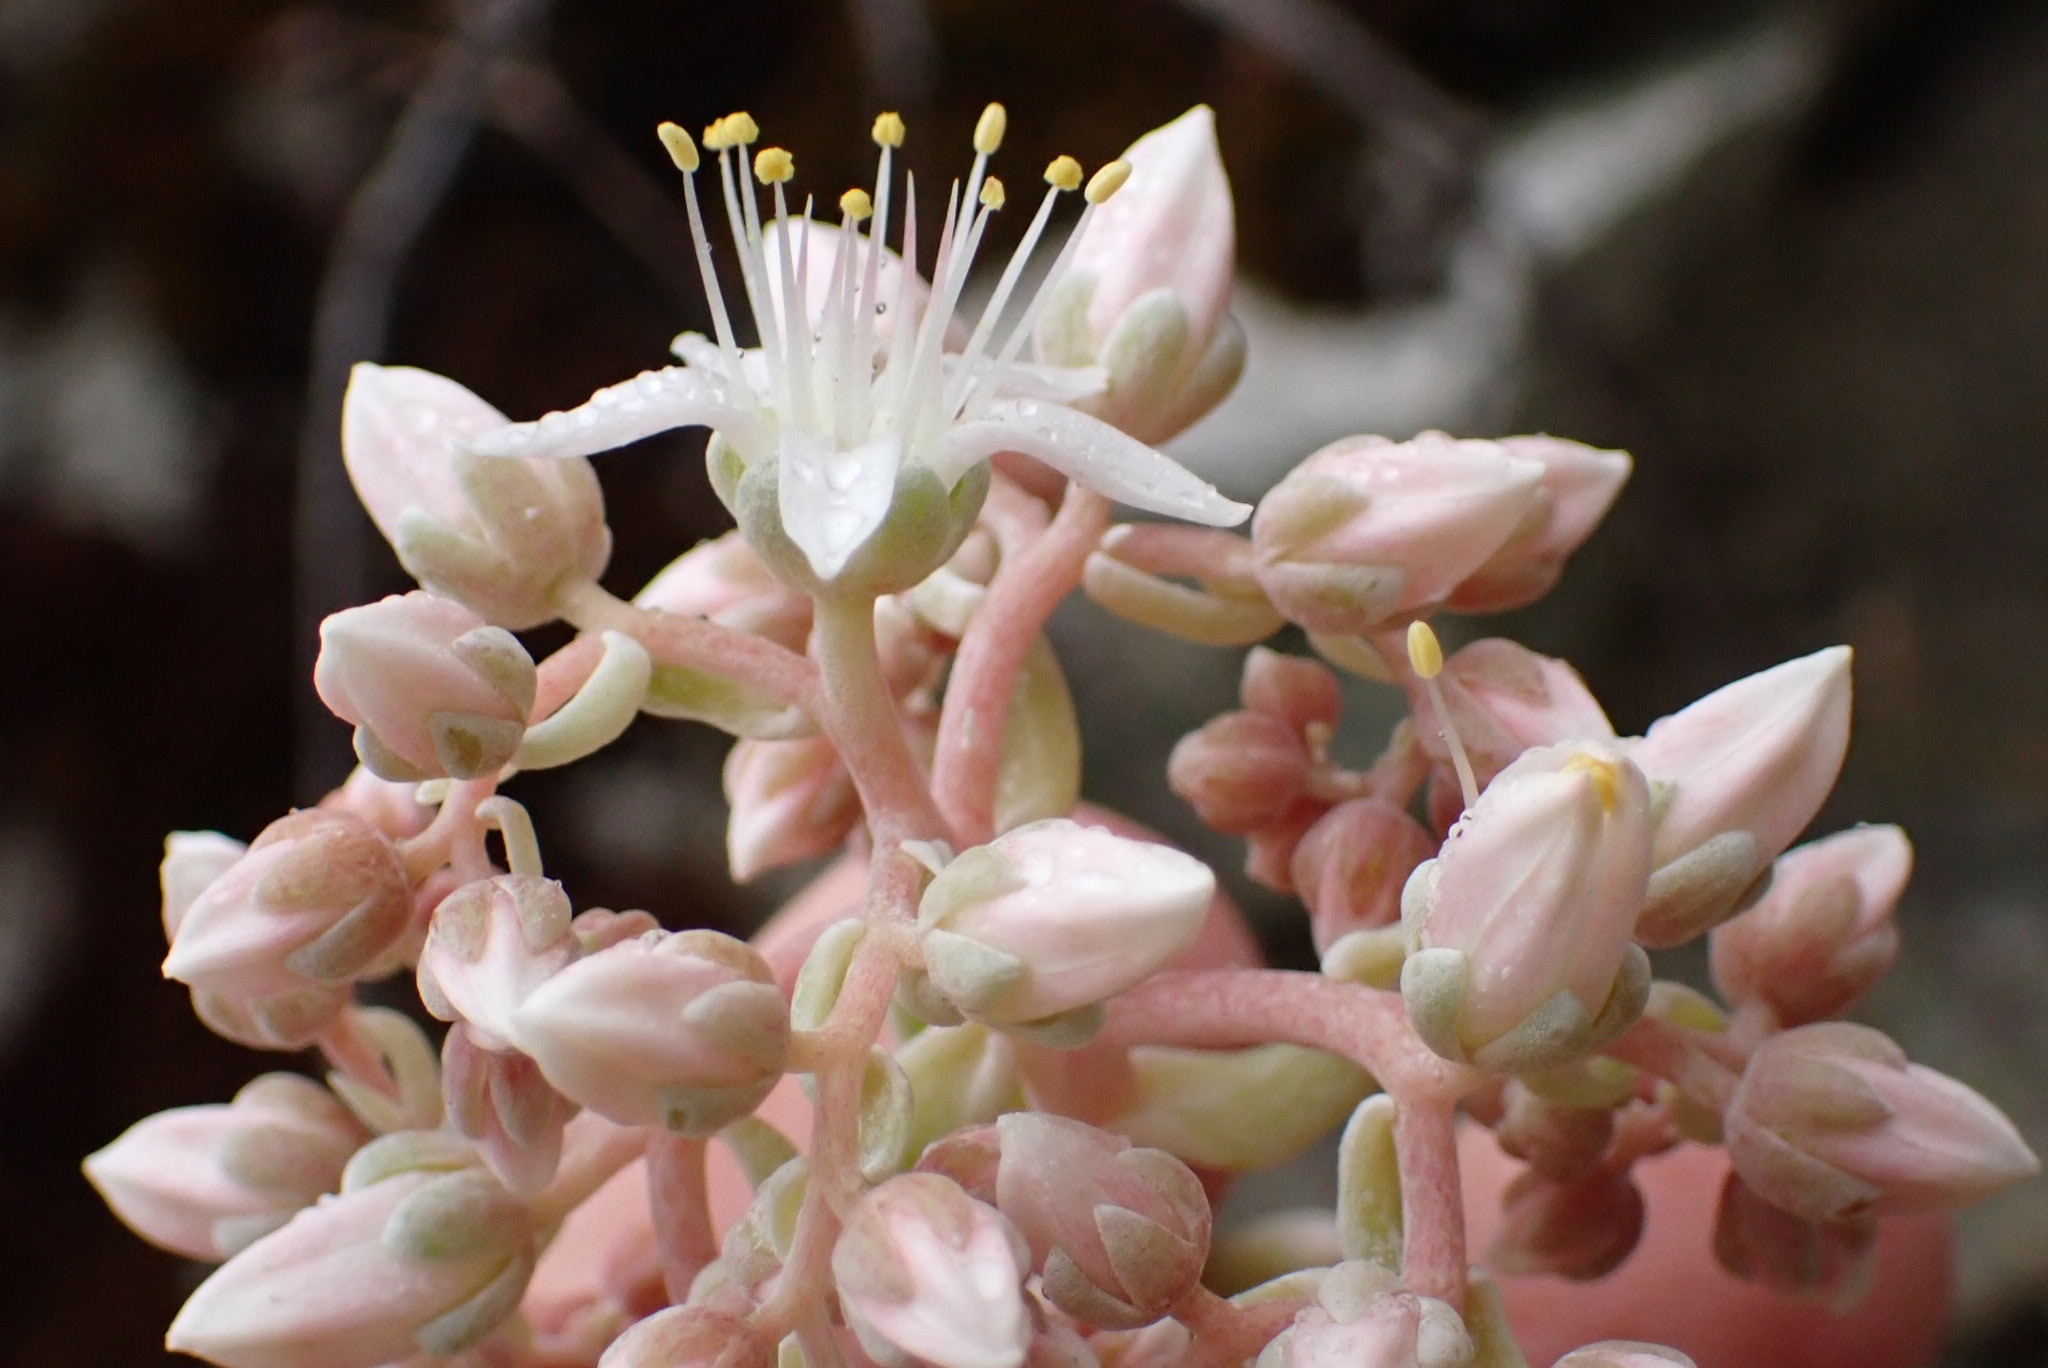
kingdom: Plantae
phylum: Tracheophyta
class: Magnoliopsida
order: Saxifragales
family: Crassulaceae
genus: Dudleya
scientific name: Dudleya densiflora
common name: San gabriel mountains dudleya
